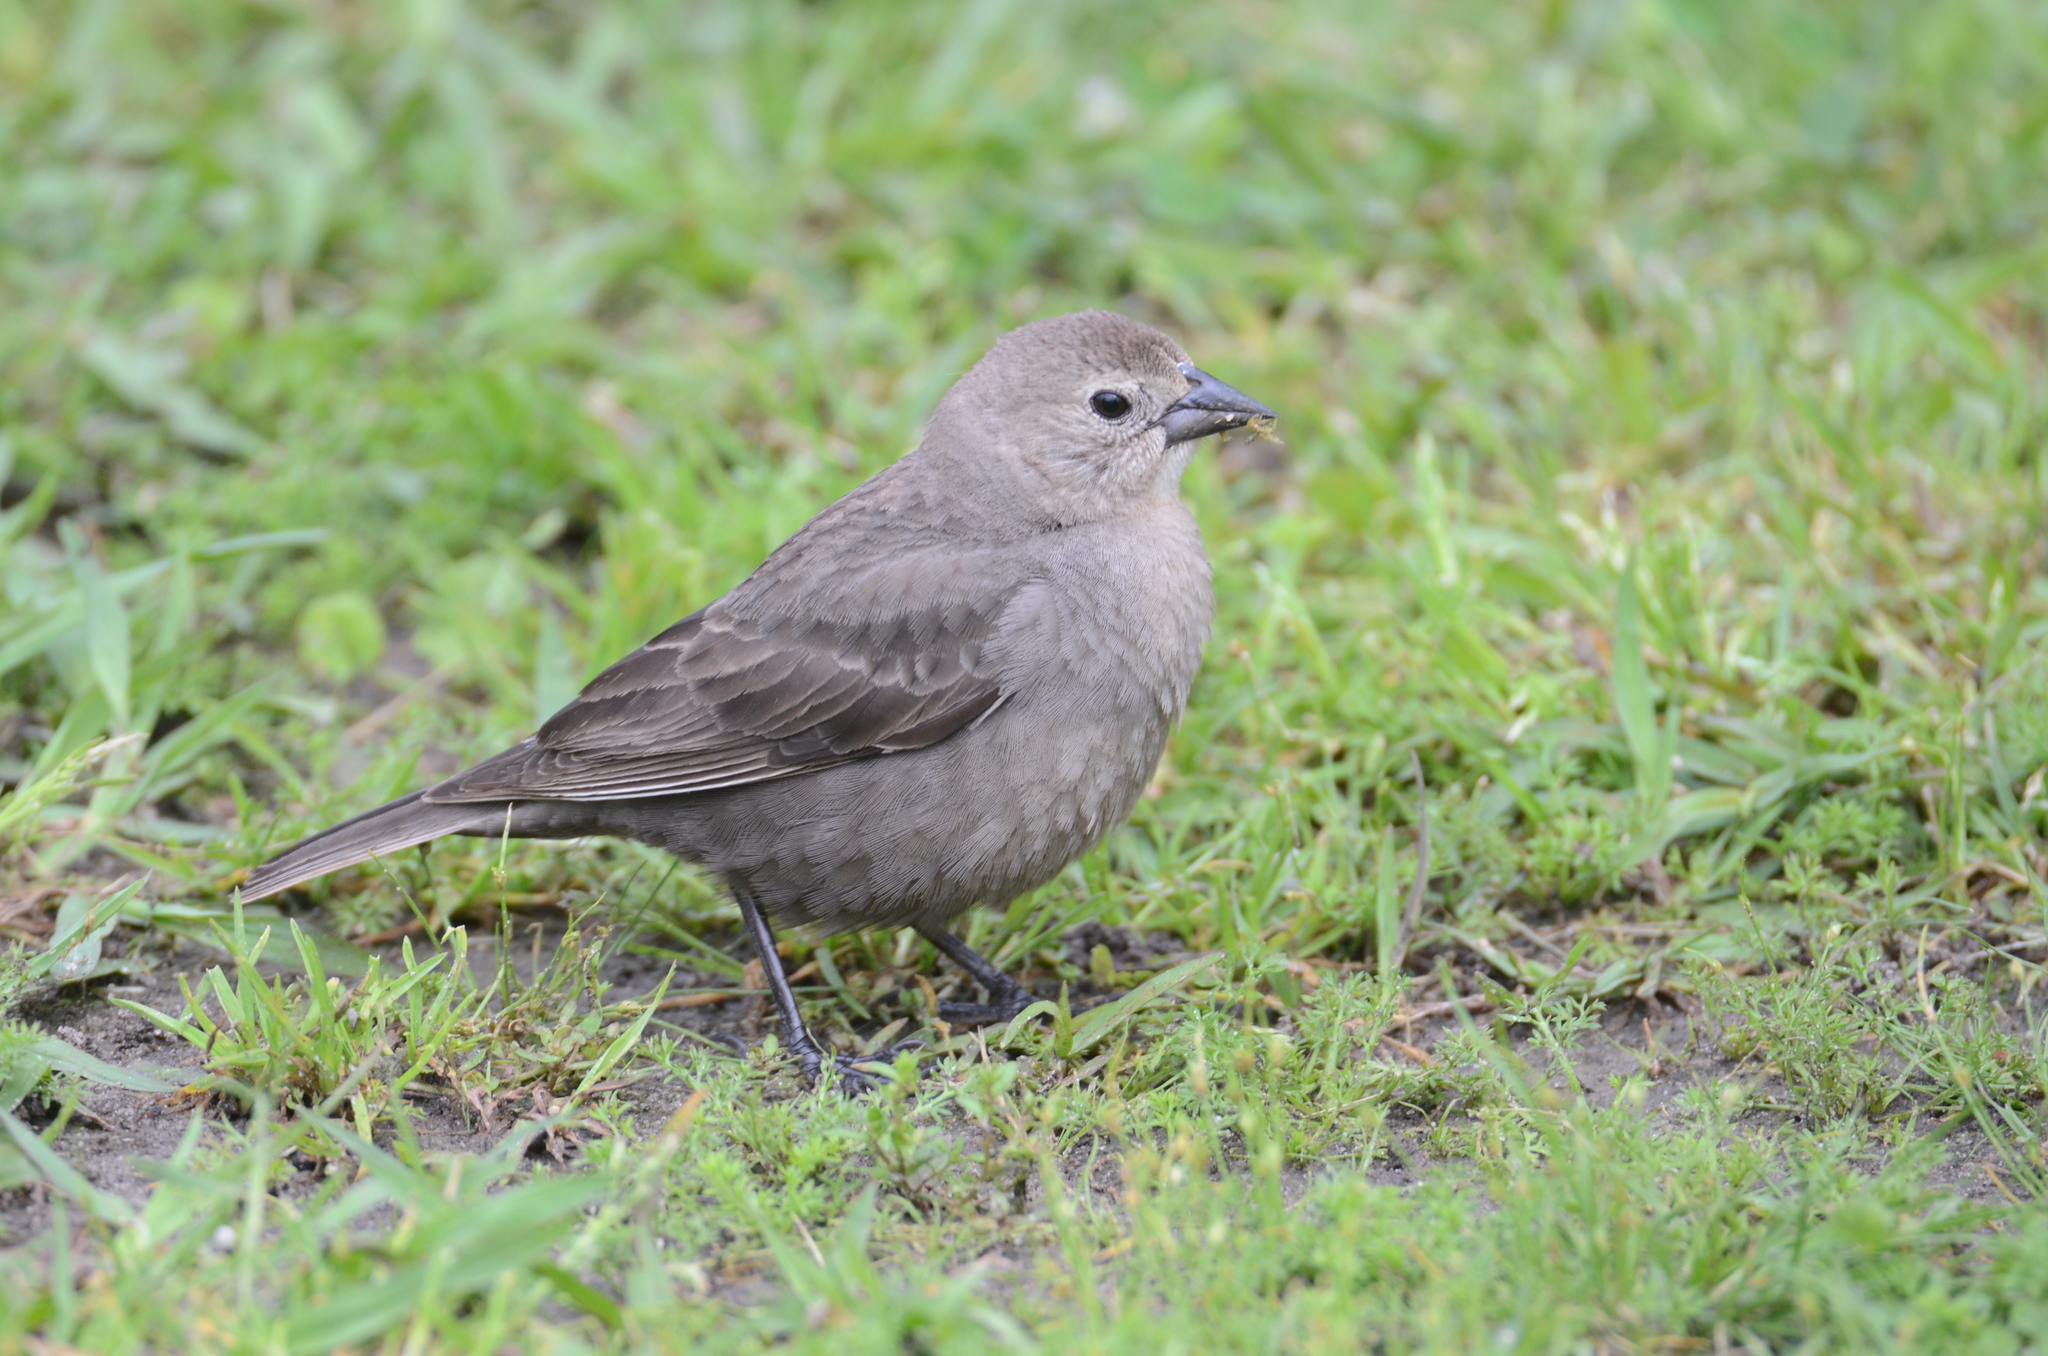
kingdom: Animalia
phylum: Chordata
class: Aves
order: Passeriformes
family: Icteridae
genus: Molothrus
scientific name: Molothrus ater
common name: Brown-headed cowbird
